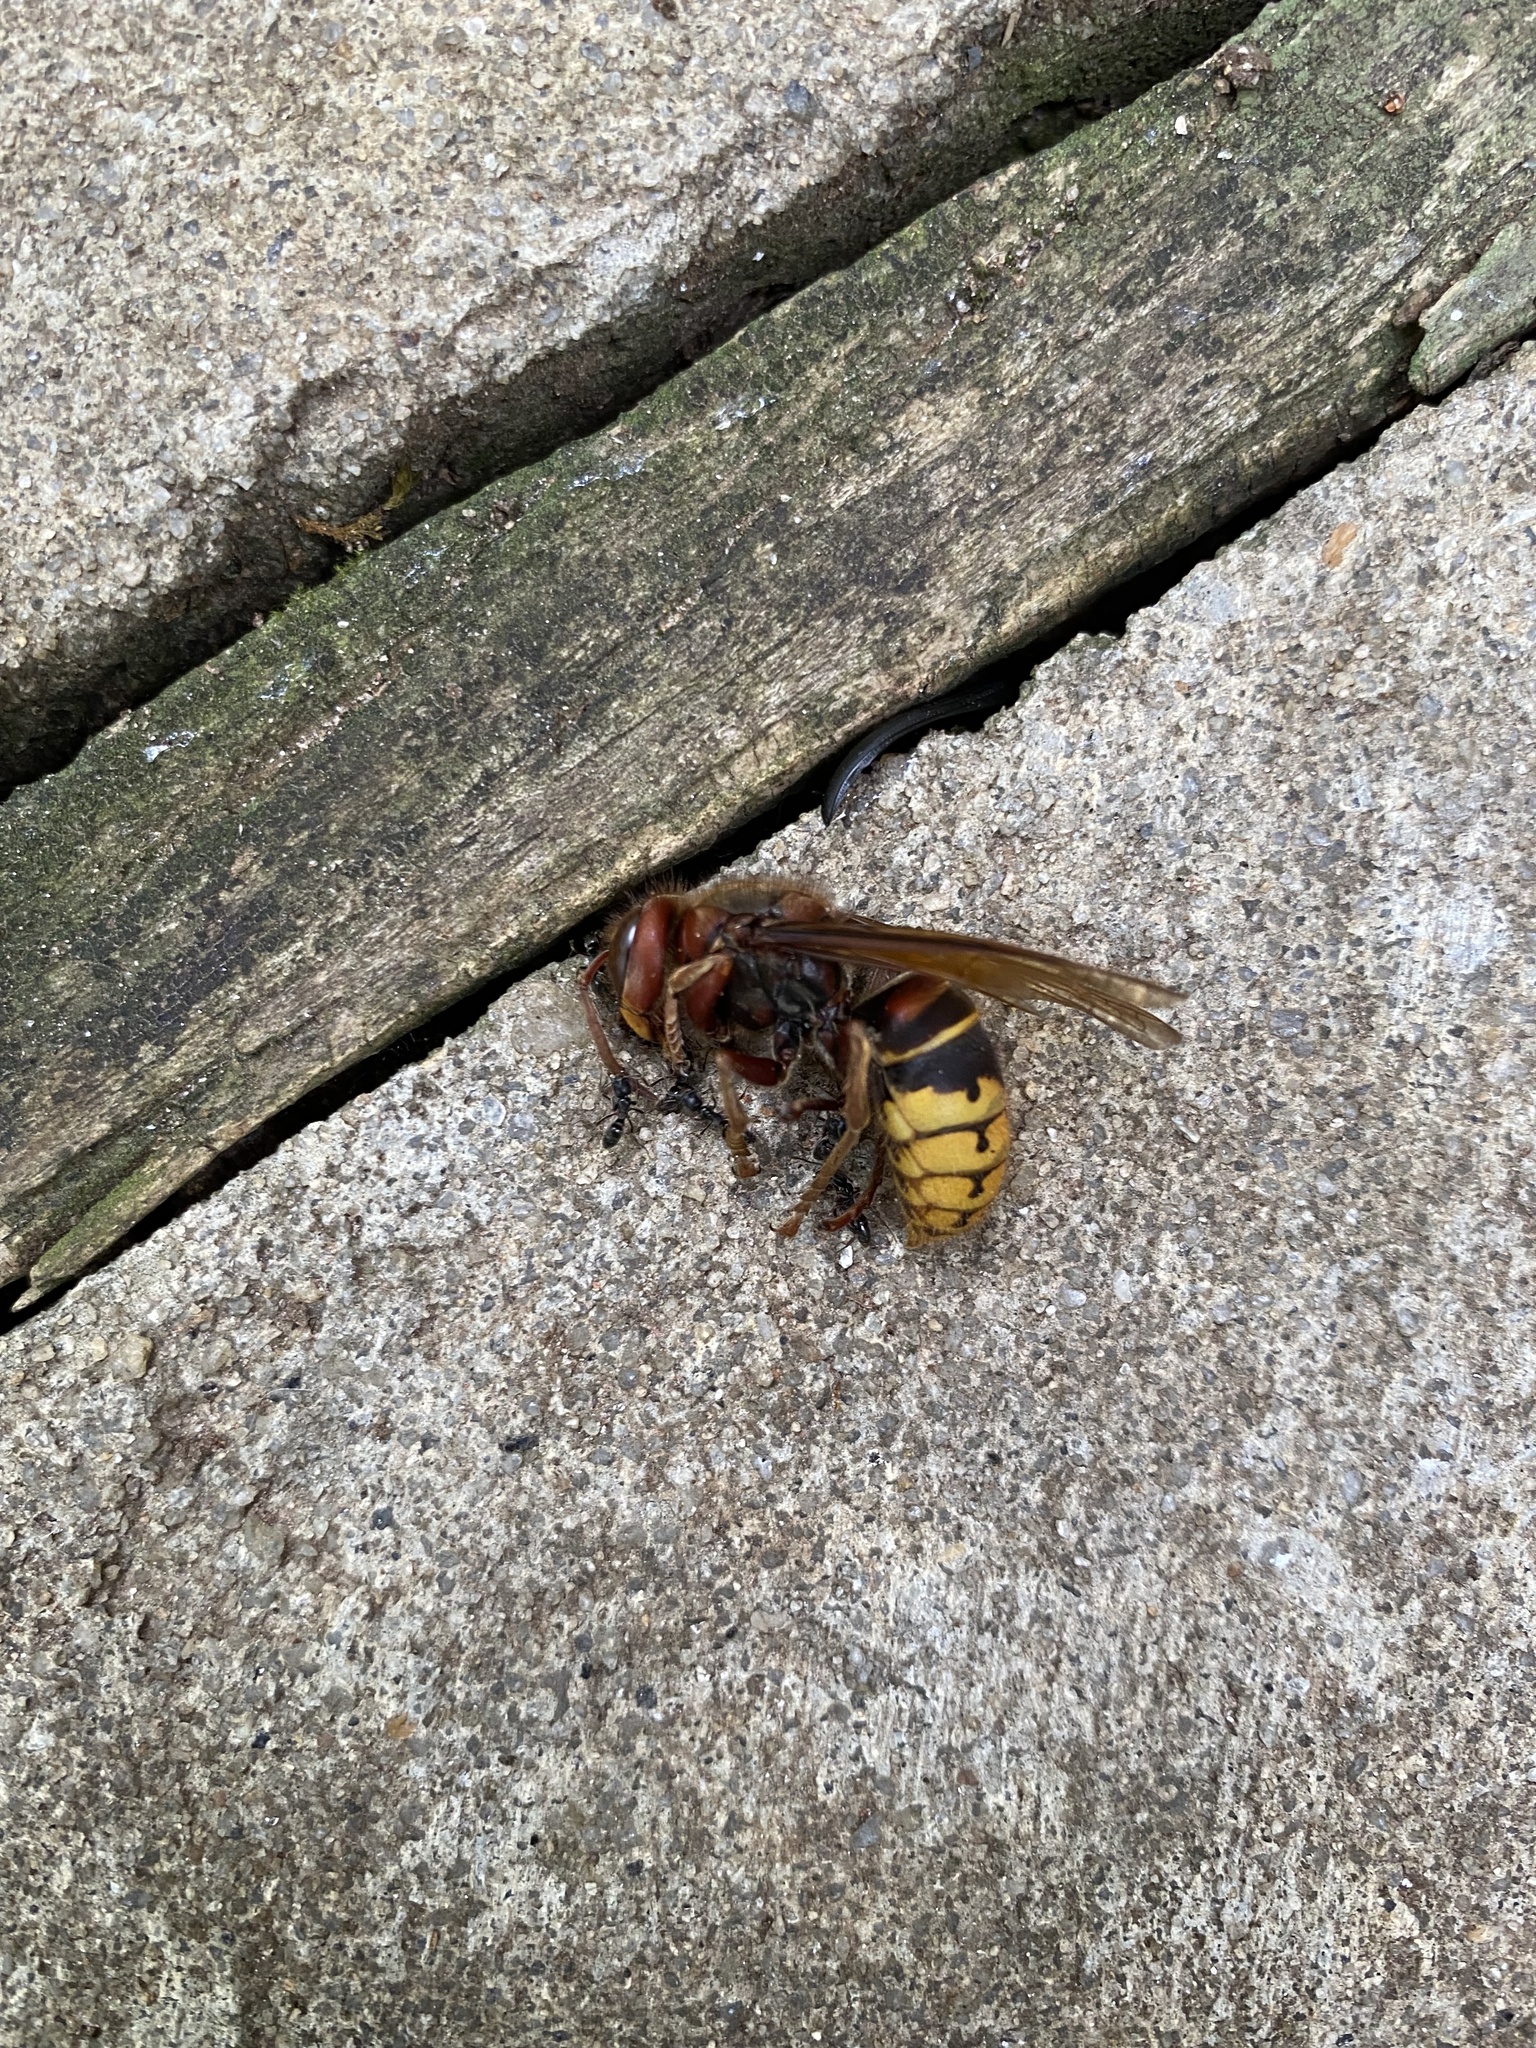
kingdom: Animalia
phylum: Arthropoda
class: Insecta
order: Hymenoptera
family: Vespidae
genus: Vespa
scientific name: Vespa crabro
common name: Hornet
